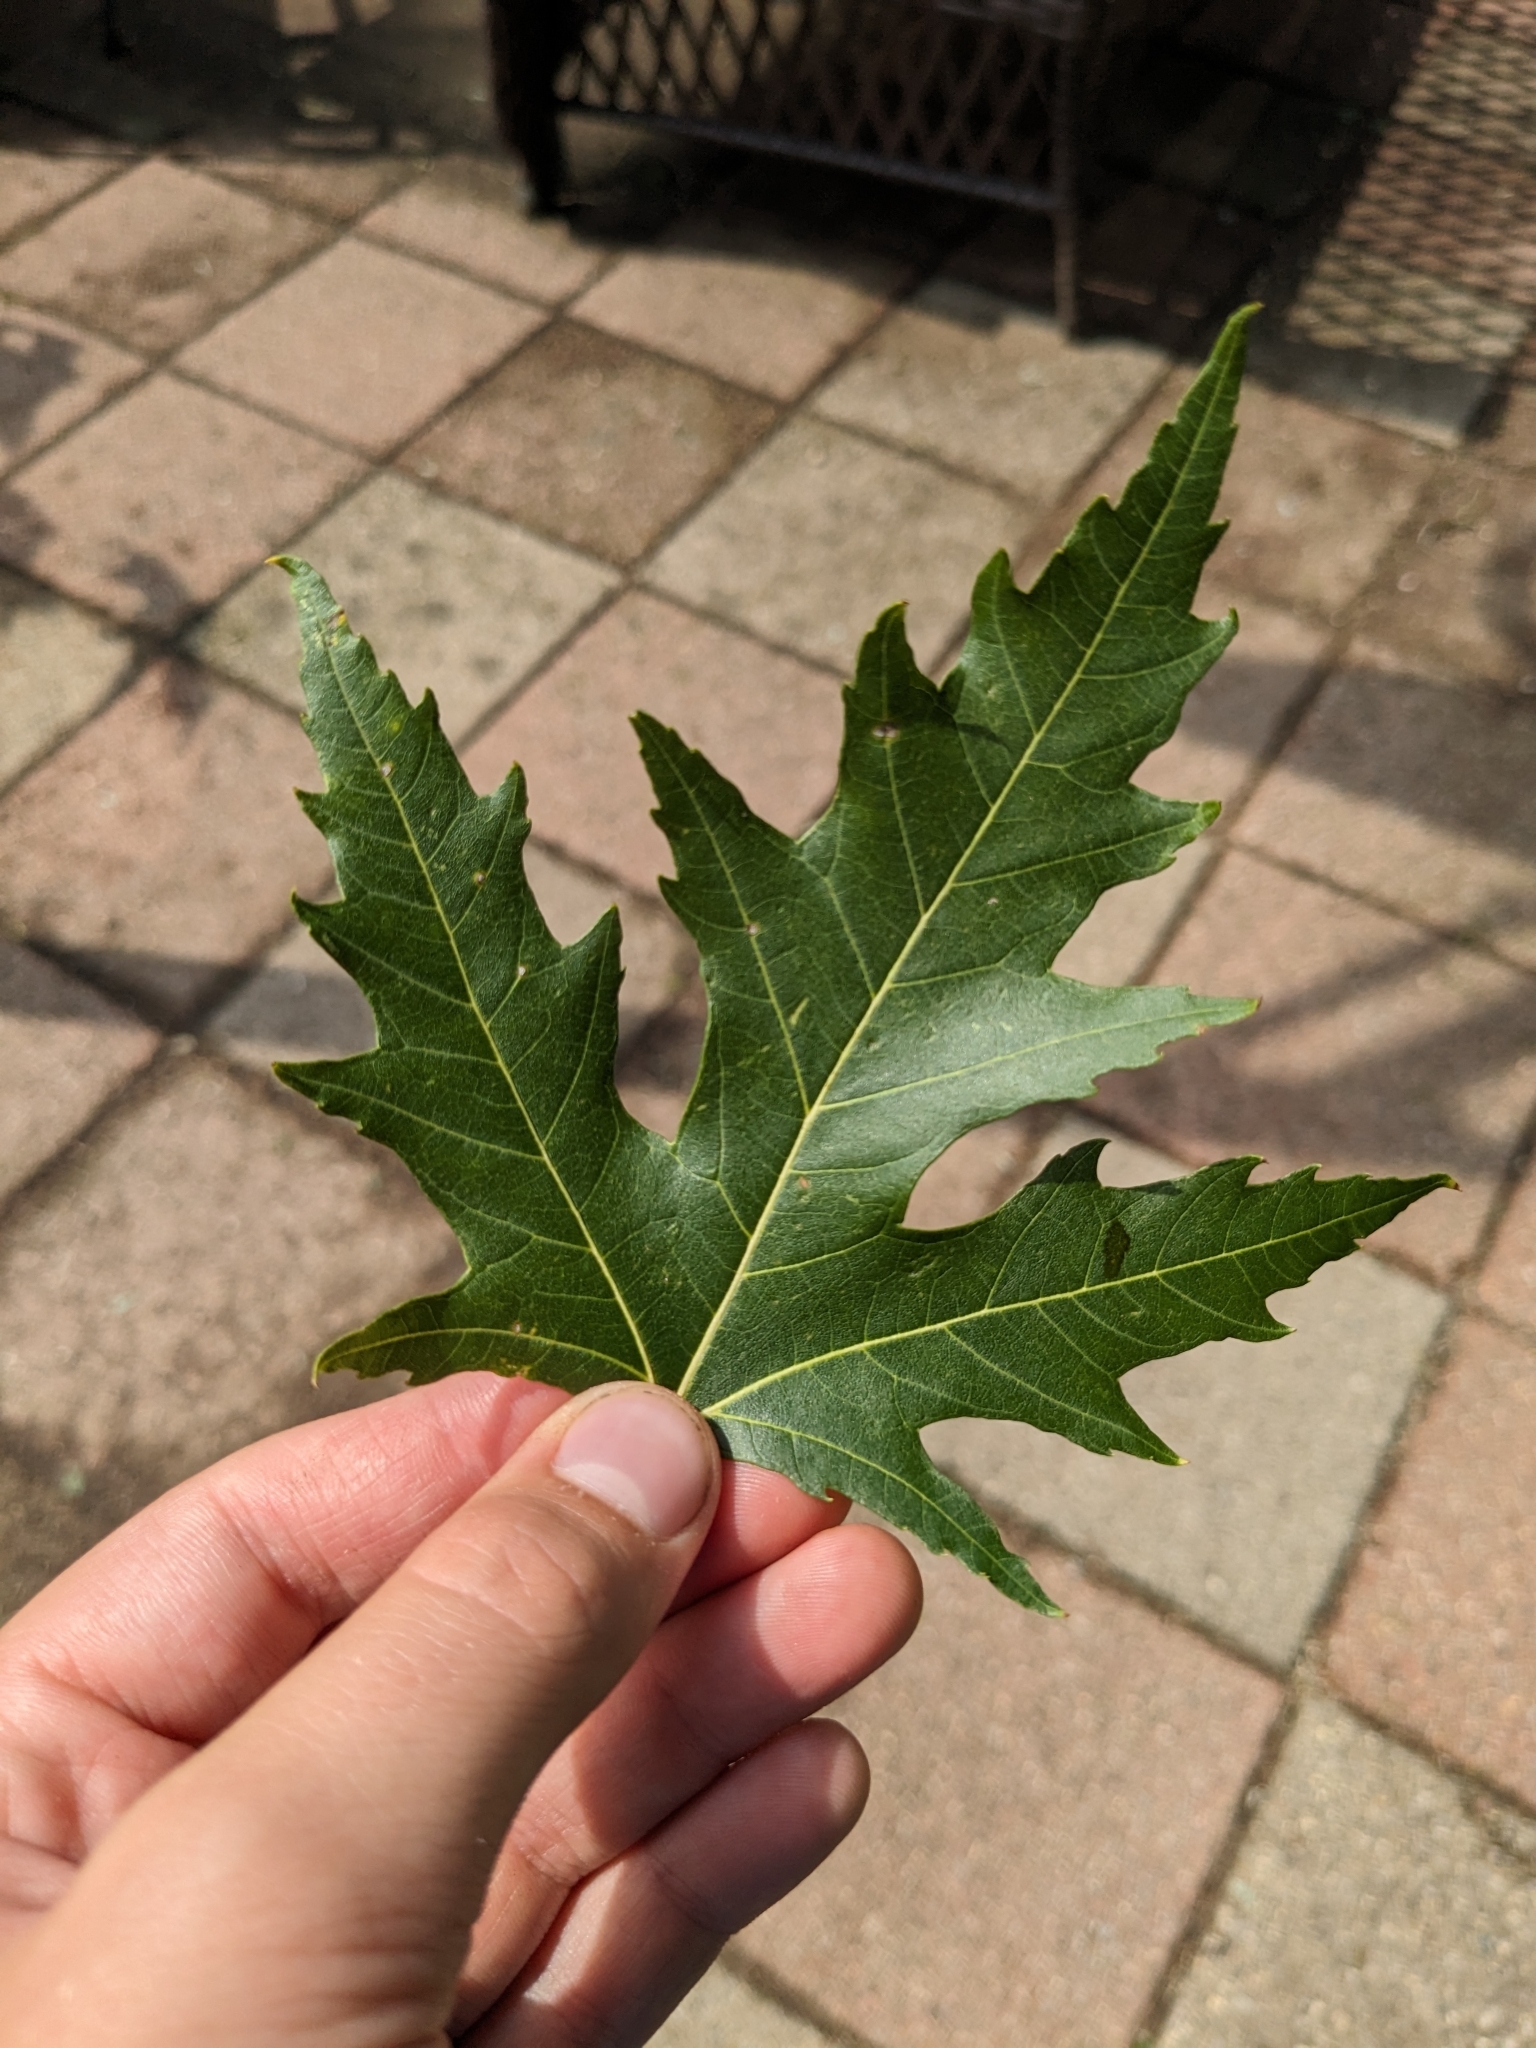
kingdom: Plantae
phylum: Tracheophyta
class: Magnoliopsida
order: Sapindales
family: Sapindaceae
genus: Acer
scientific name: Acer saccharinum
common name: Silver maple
